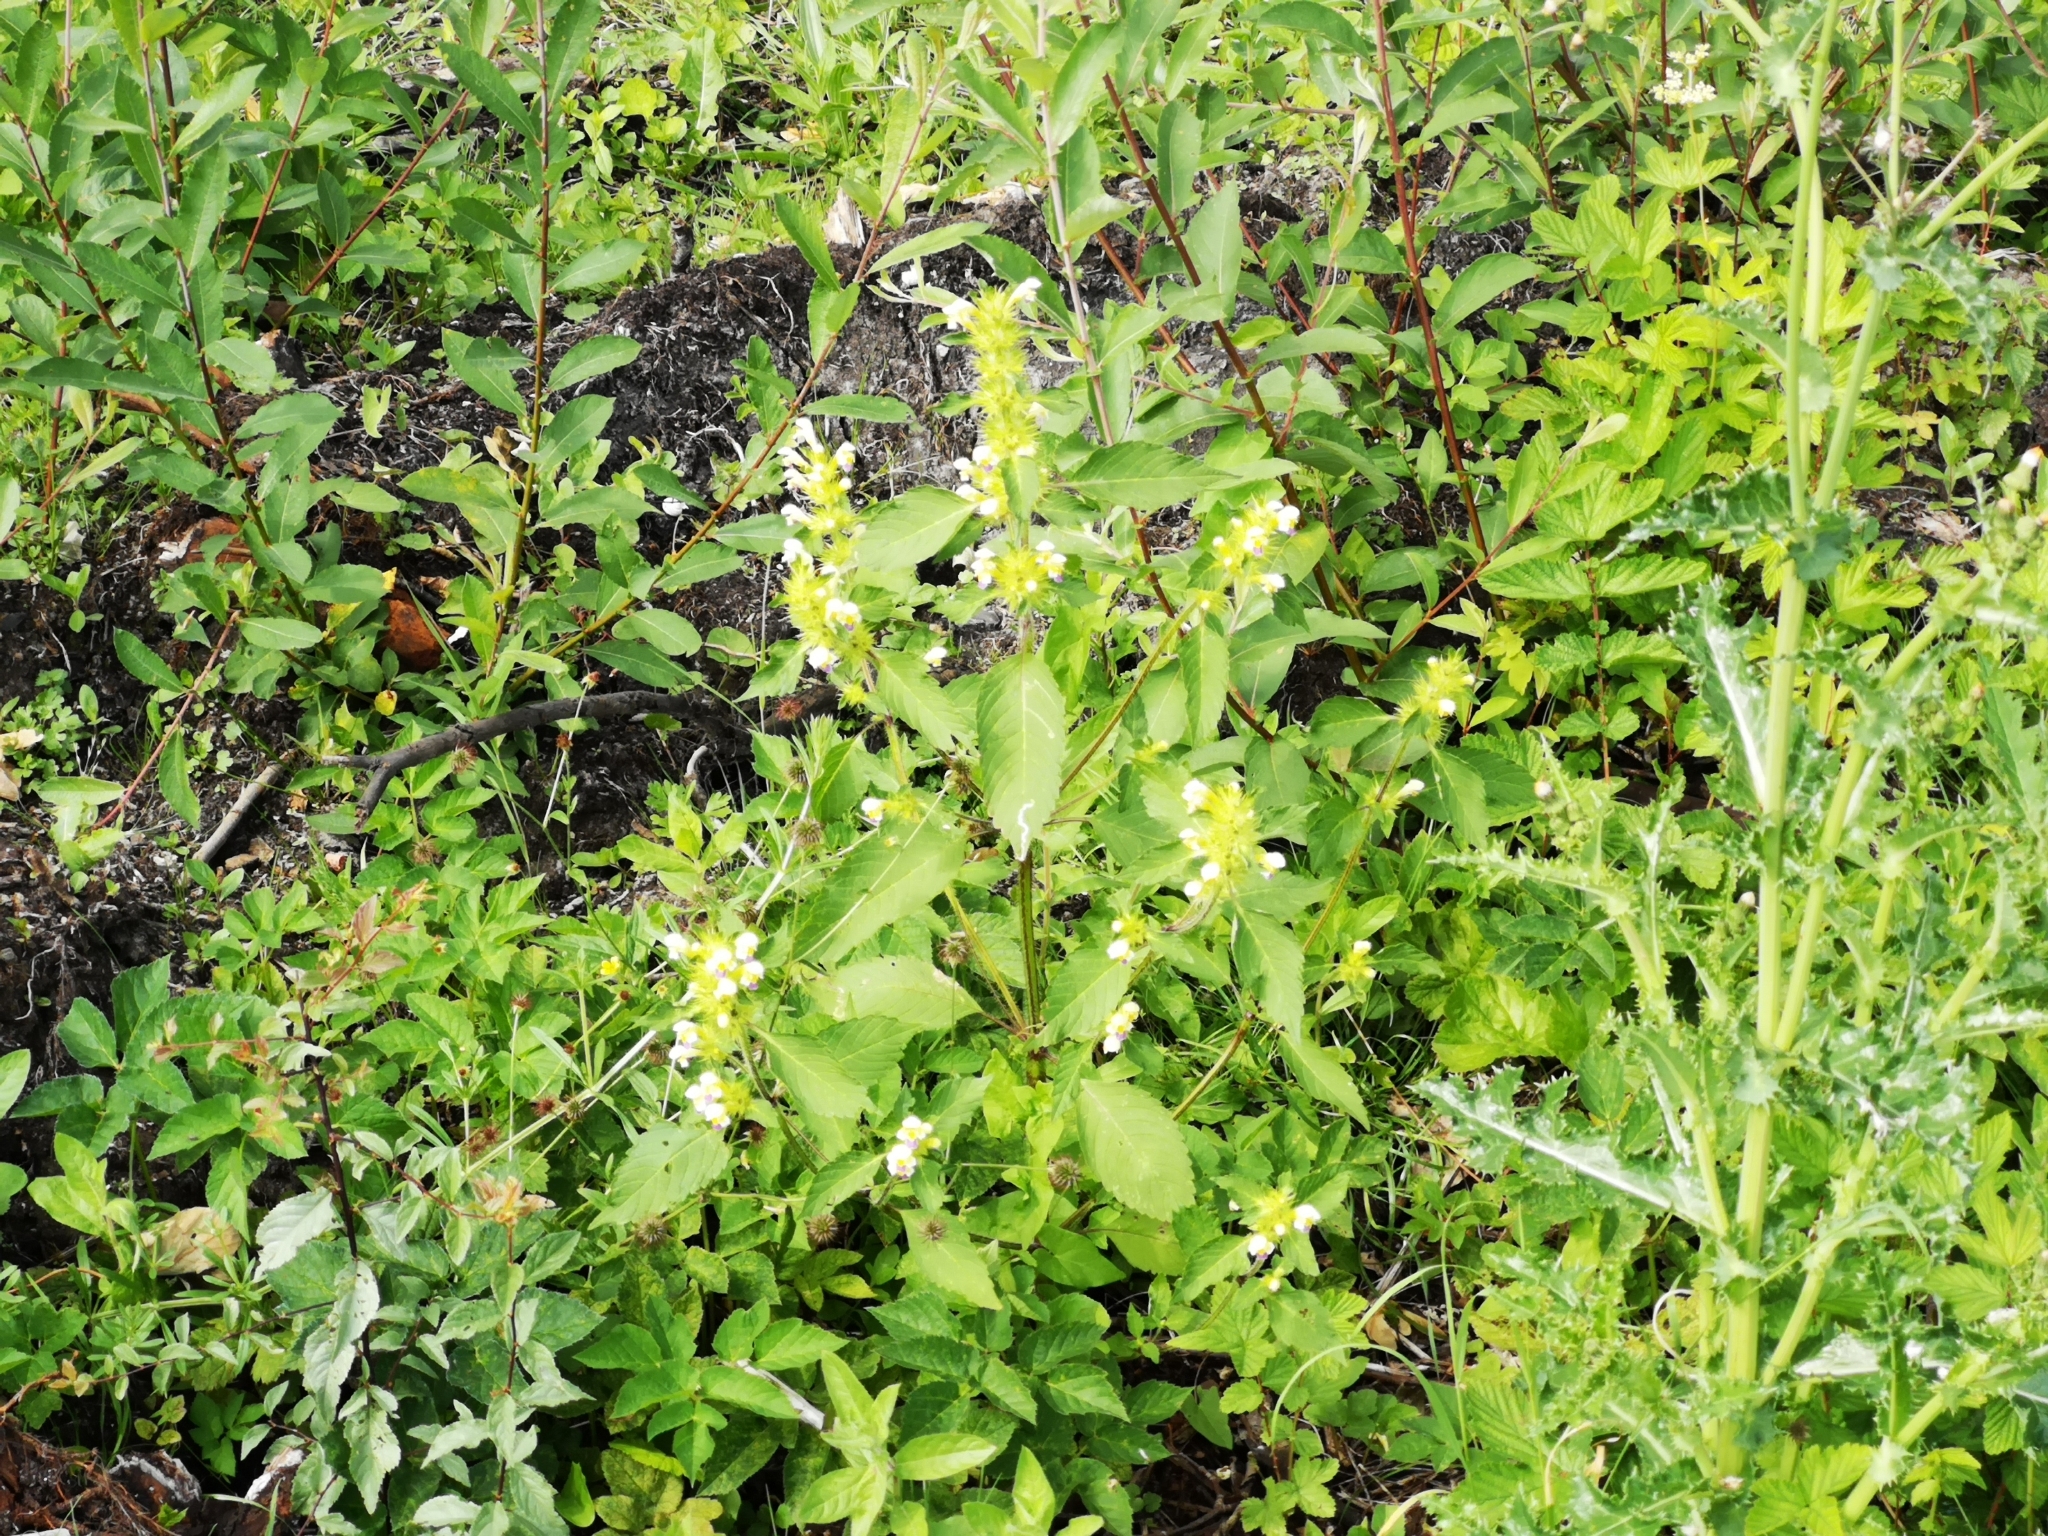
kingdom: Plantae
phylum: Tracheophyta
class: Magnoliopsida
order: Lamiales
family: Lamiaceae
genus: Galeopsis
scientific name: Galeopsis speciosa
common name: Large-flowered hemp-nettle
